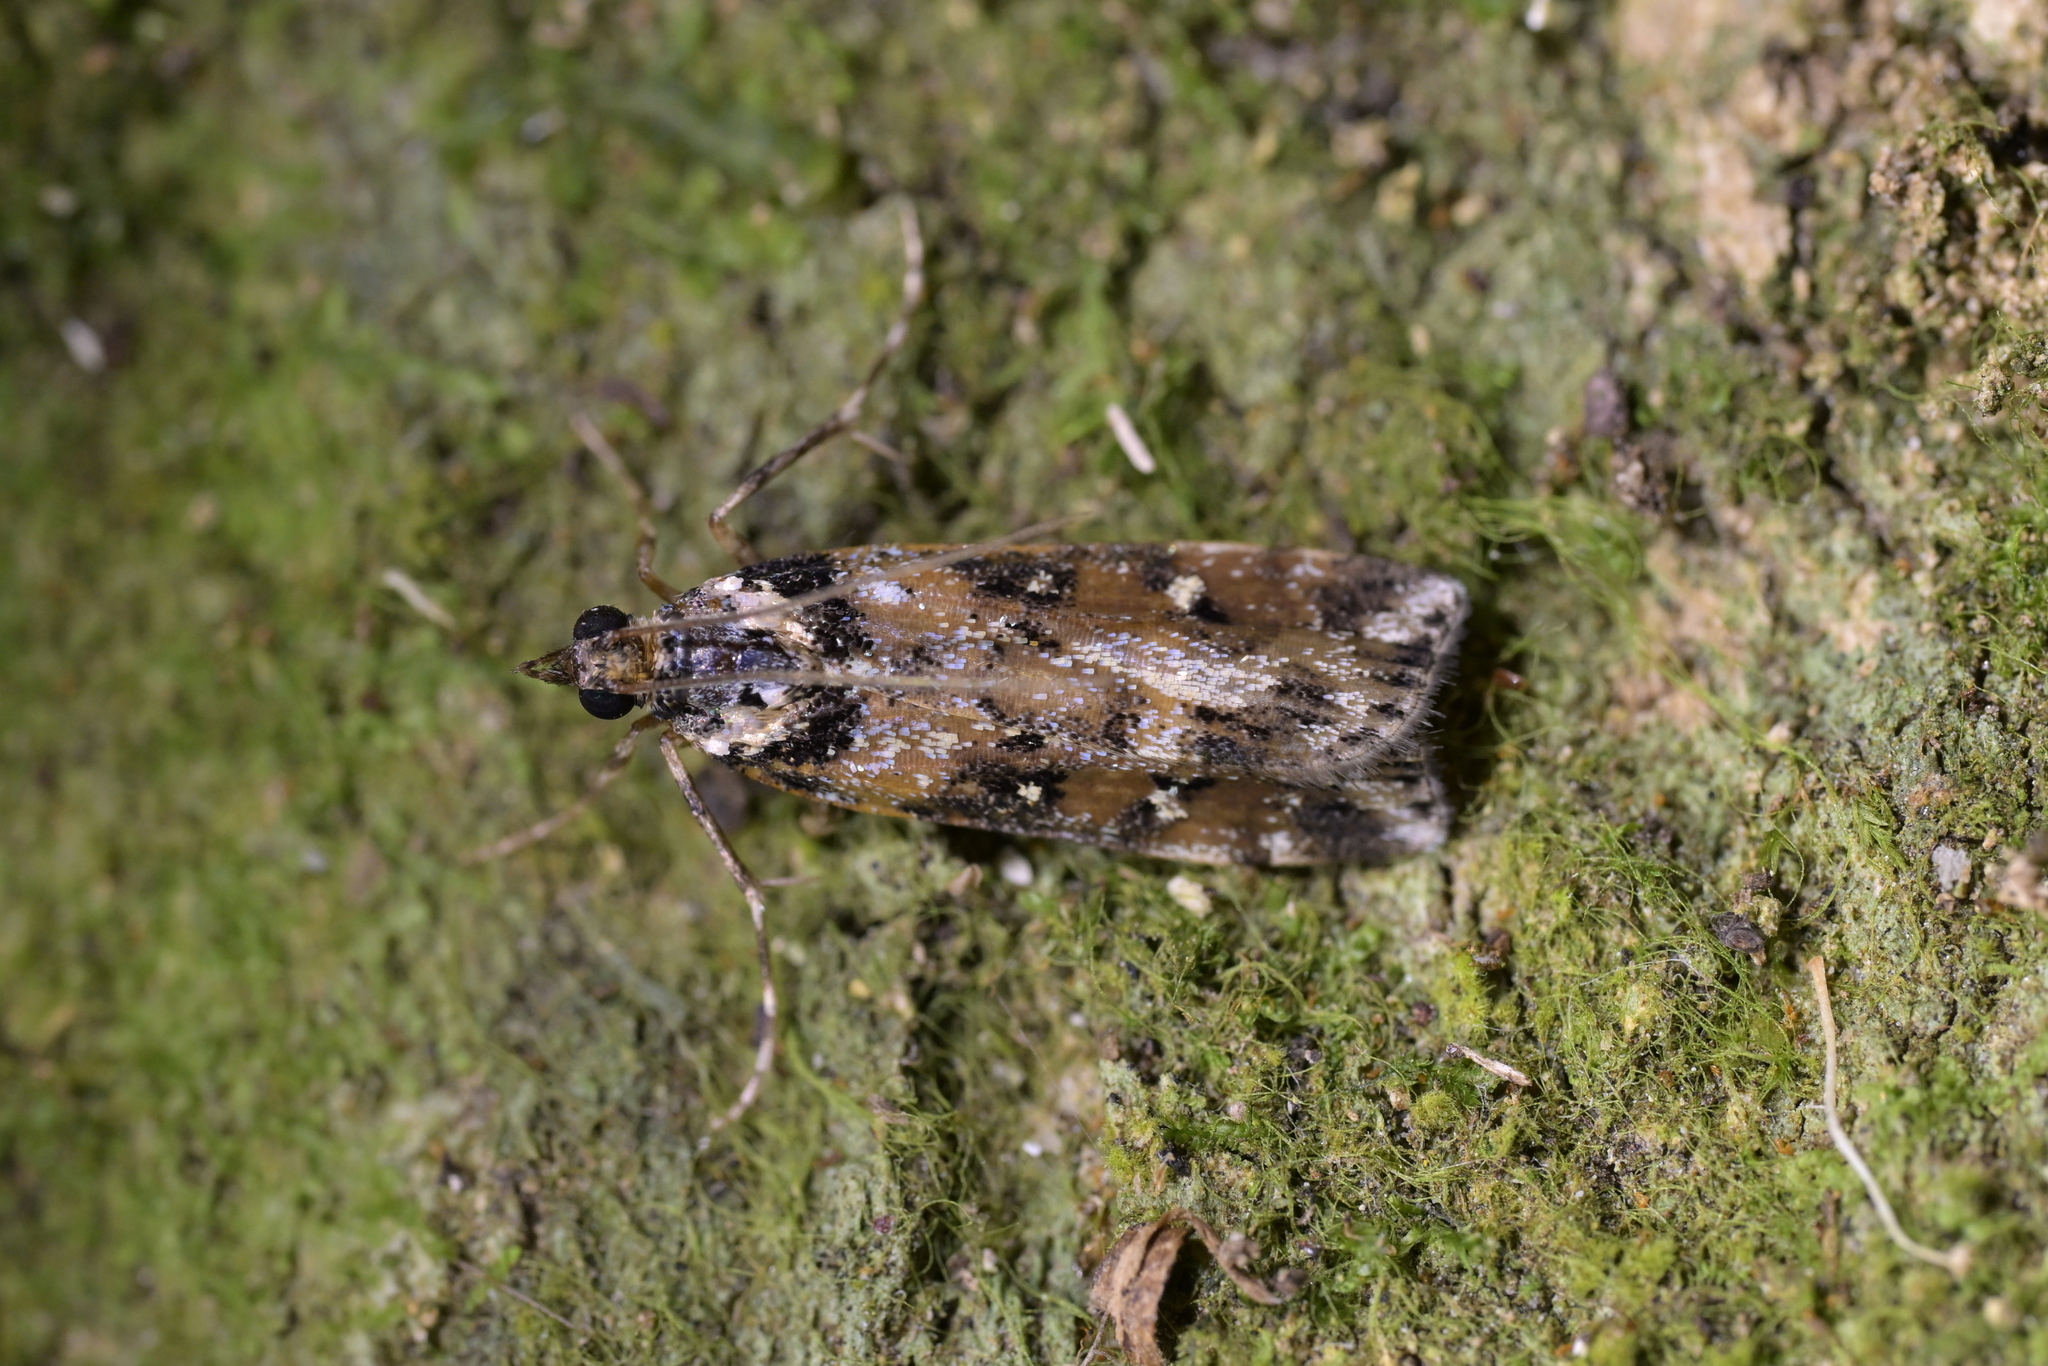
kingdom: Animalia
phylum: Arthropoda
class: Insecta
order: Lepidoptera
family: Crambidae
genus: Eudonia
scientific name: Eudonia diphtheralis
